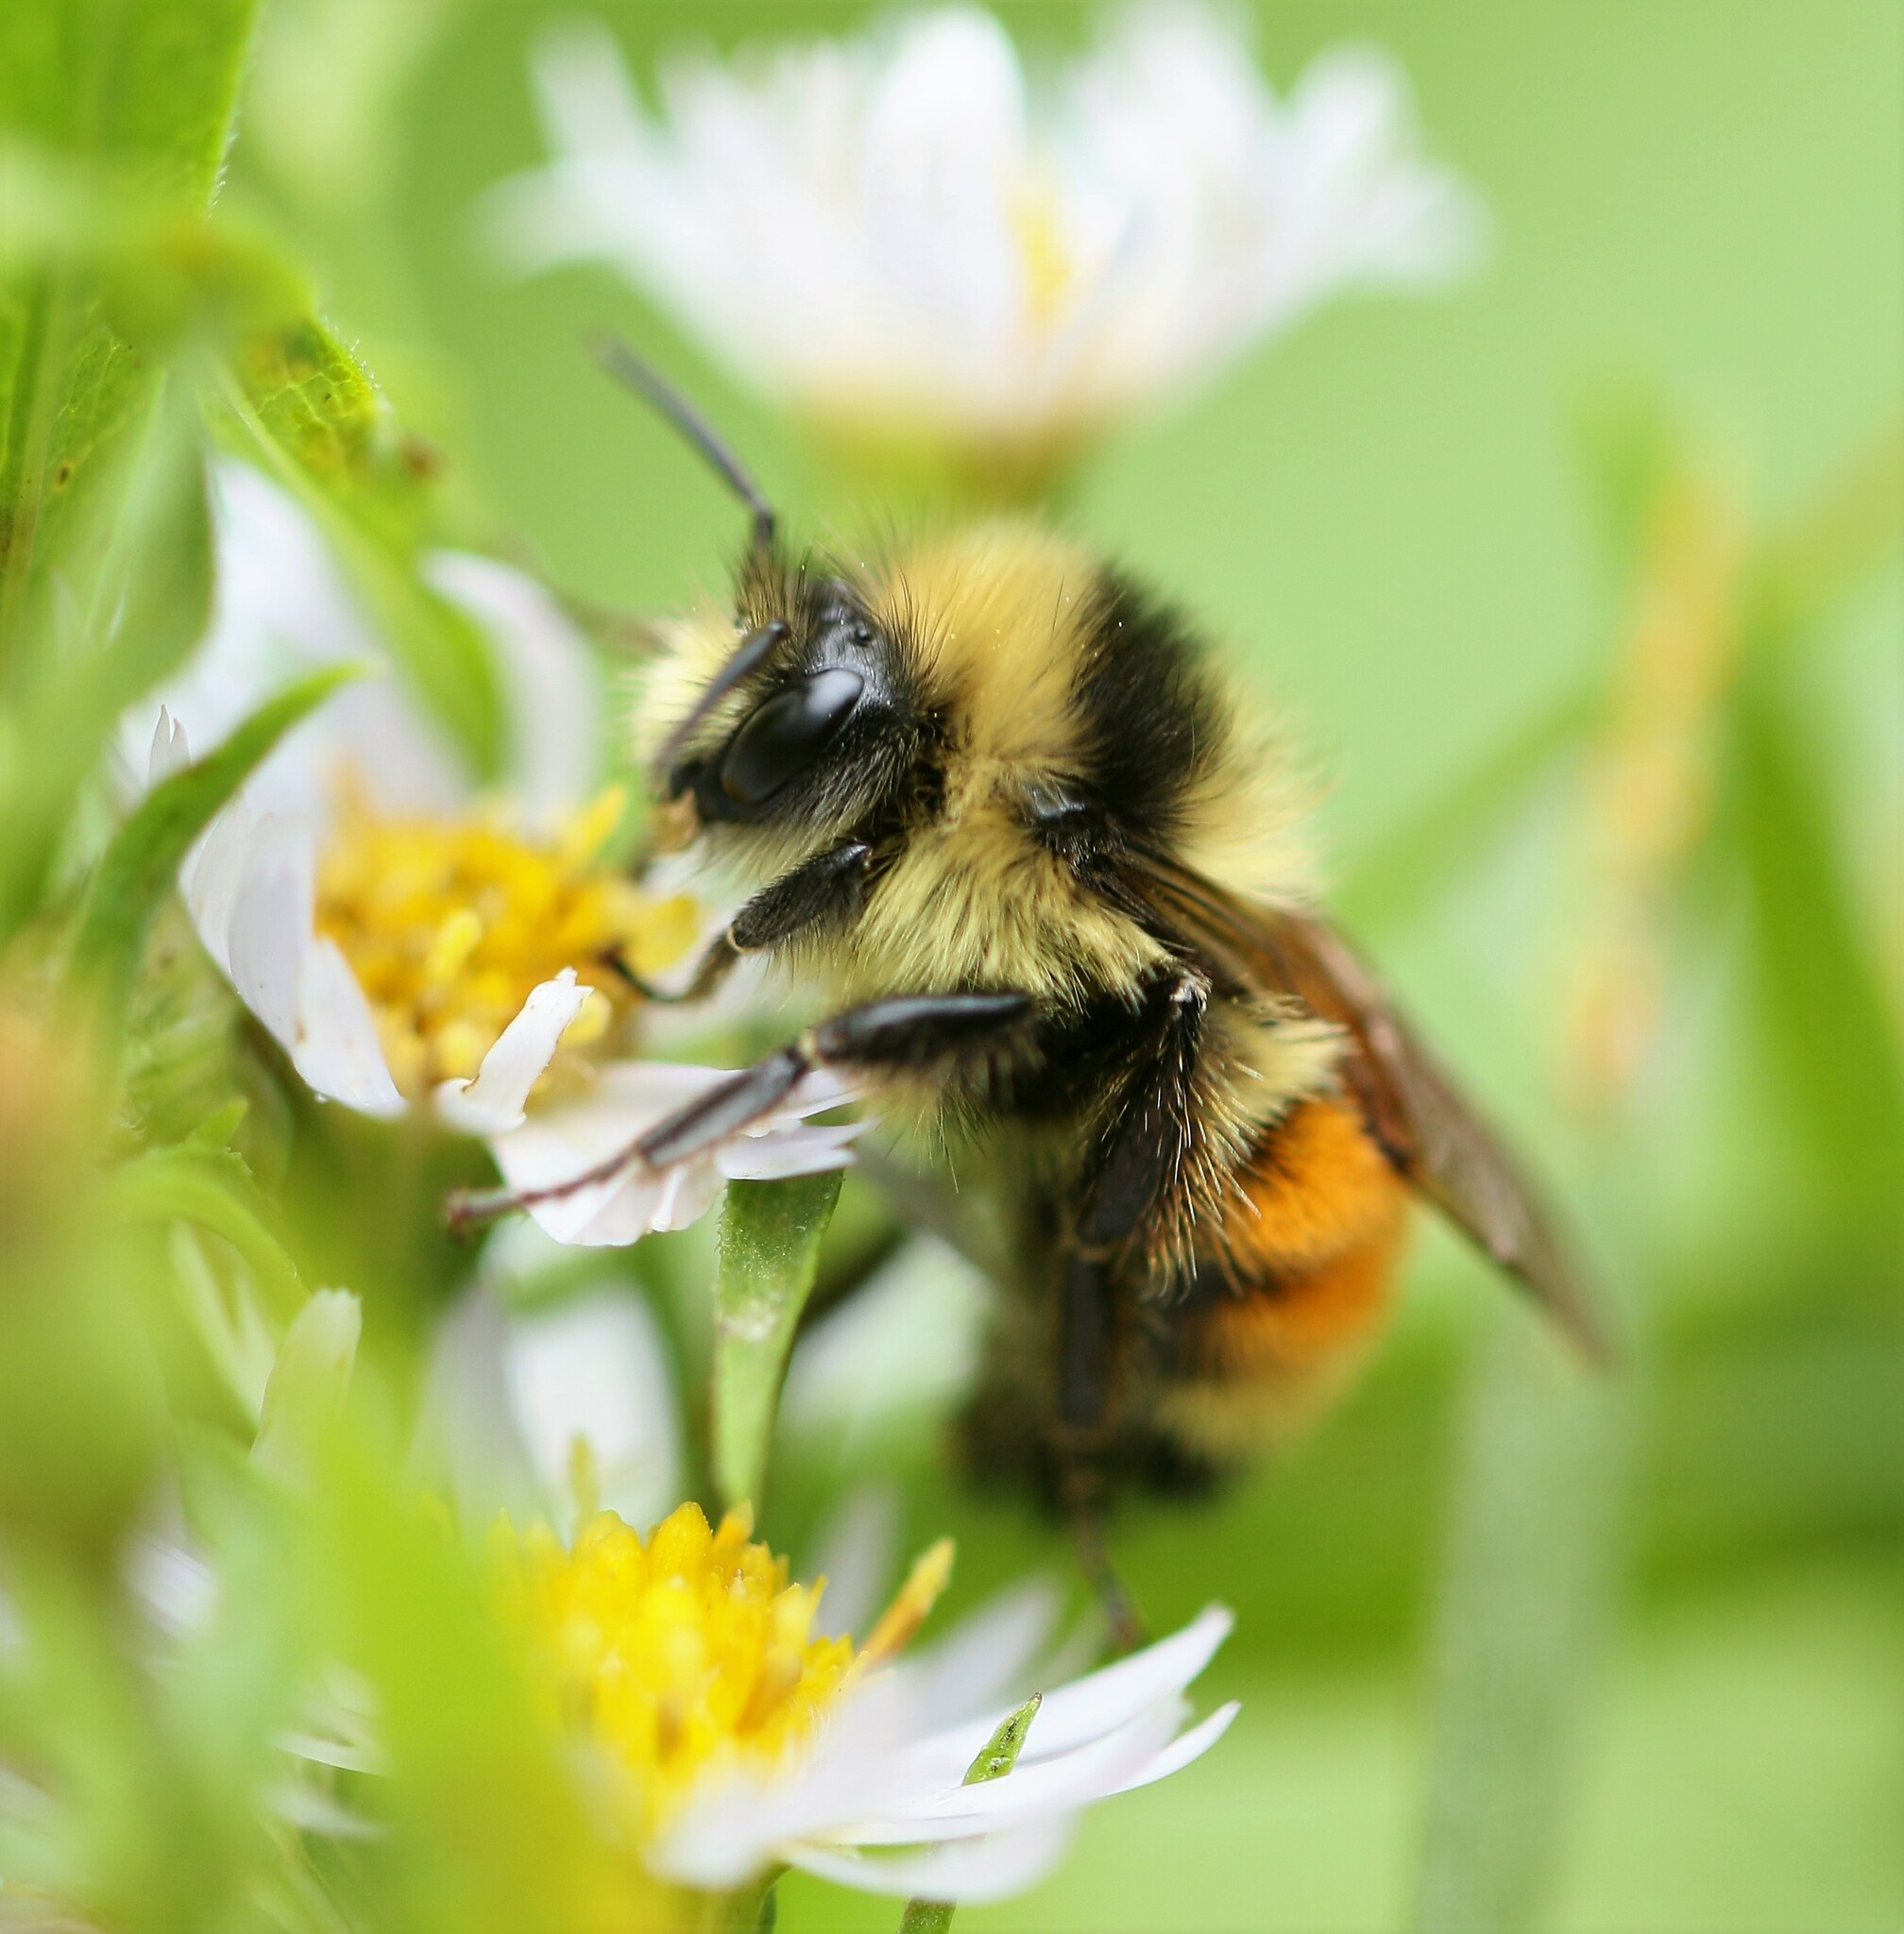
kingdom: Animalia
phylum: Arthropoda
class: Insecta
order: Hymenoptera
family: Apidae
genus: Bombus
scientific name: Bombus ternarius
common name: Tri-colored bumble bee
